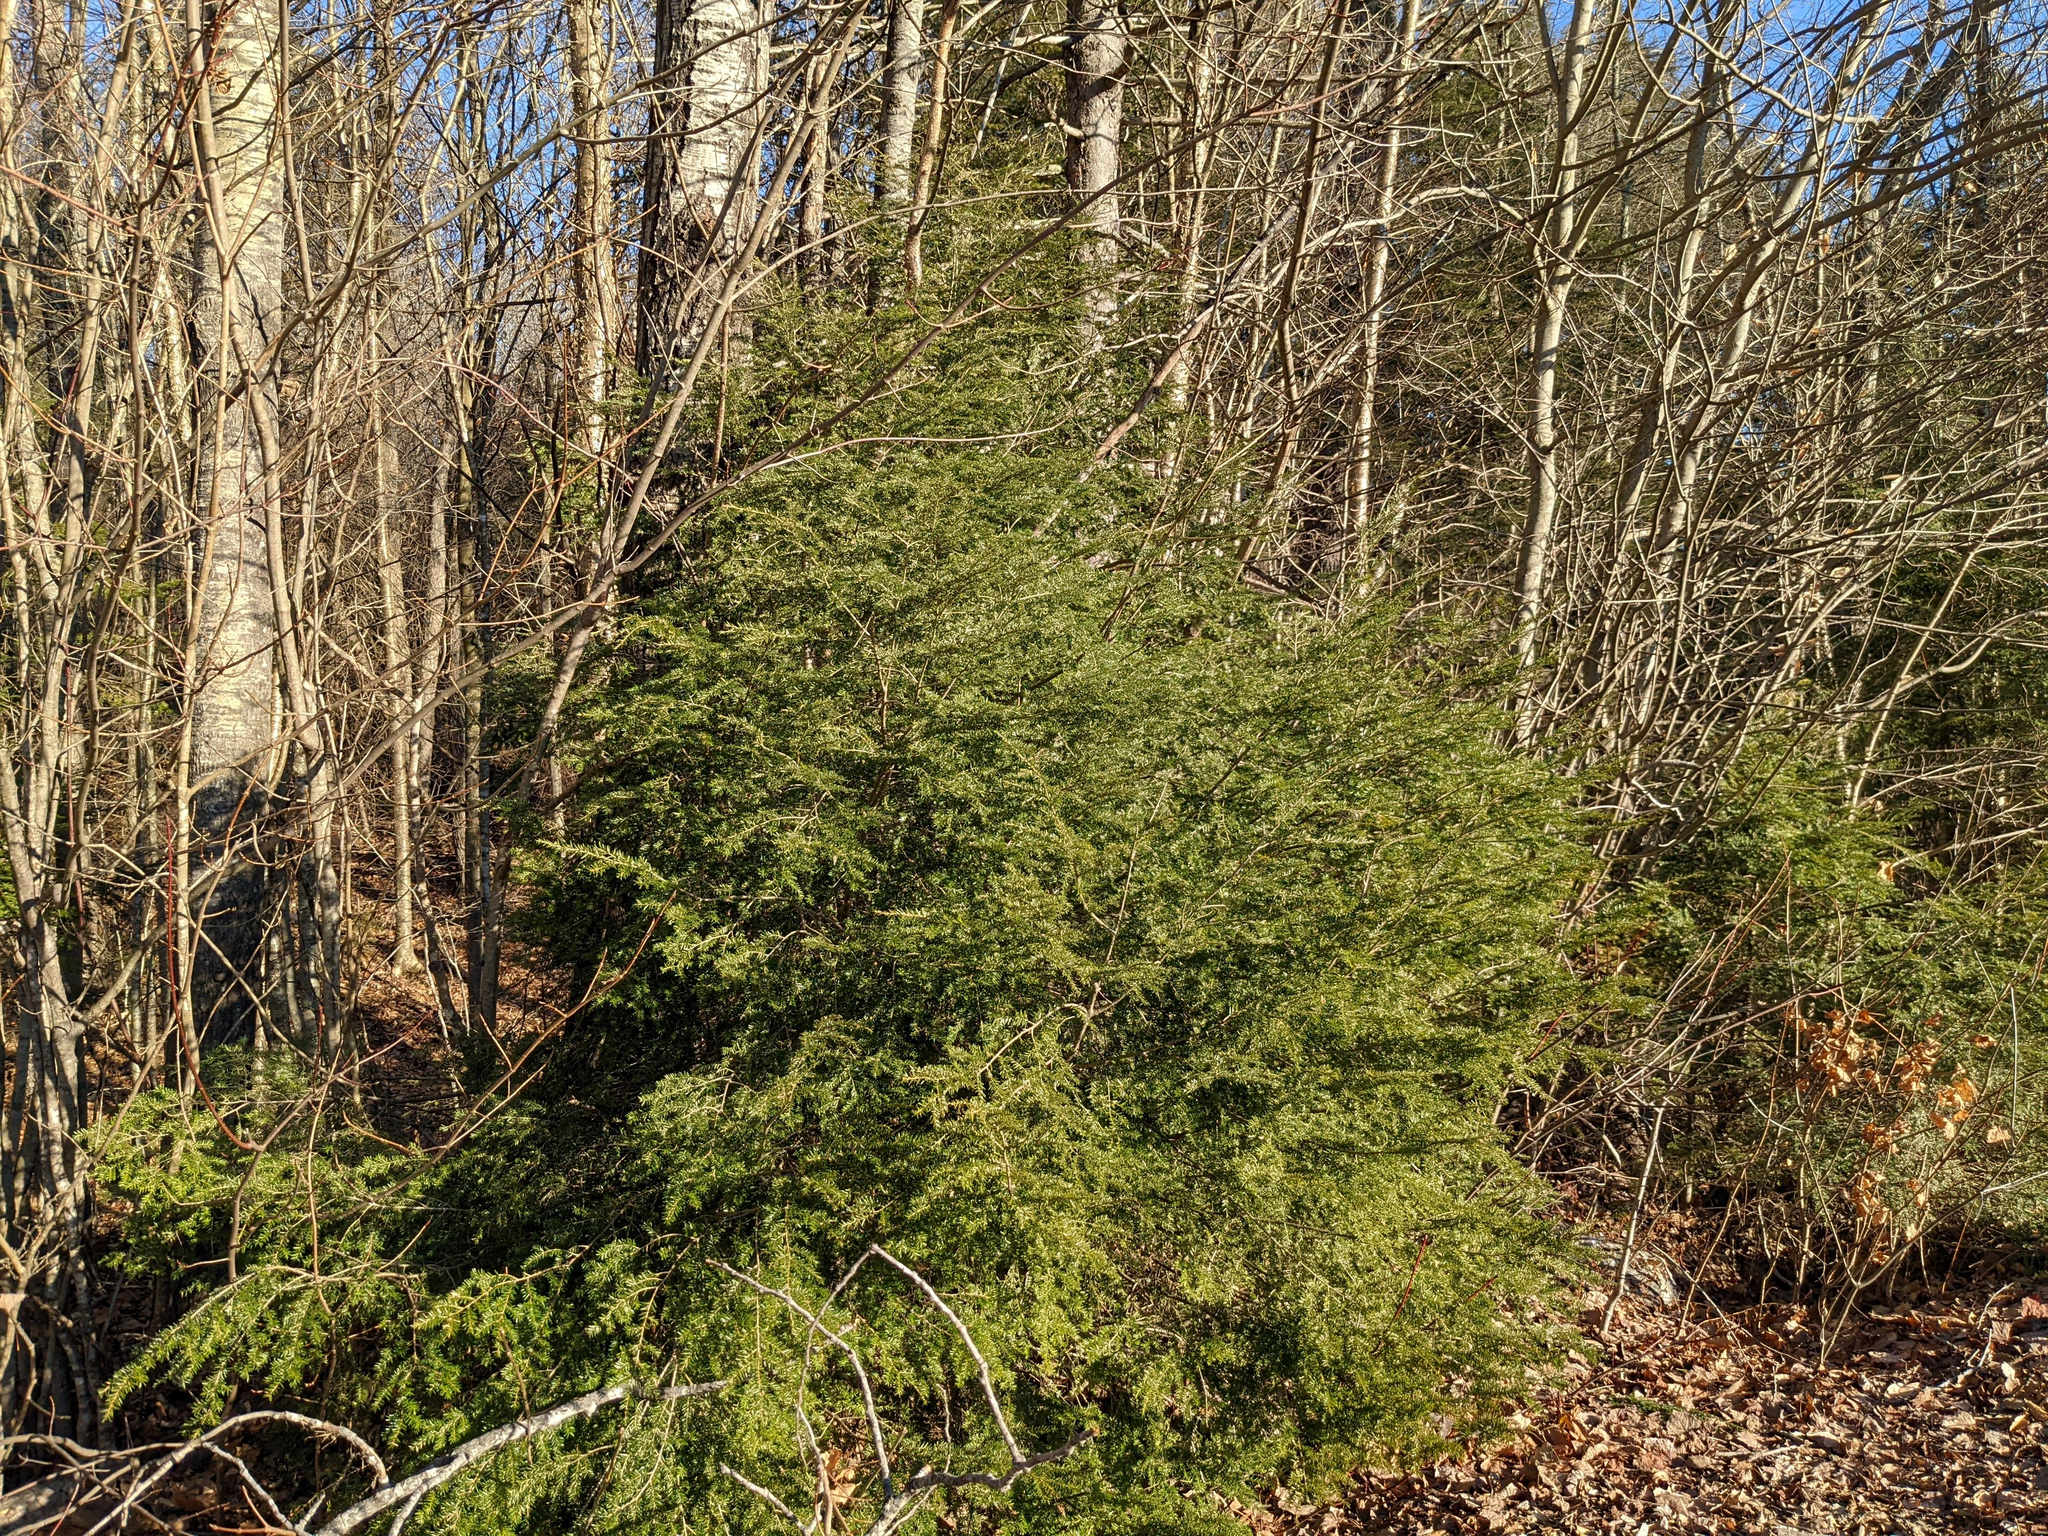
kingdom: Plantae
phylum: Tracheophyta
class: Pinopsida
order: Pinales
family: Pinaceae
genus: Tsuga
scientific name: Tsuga canadensis
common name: Eastern hemlock
